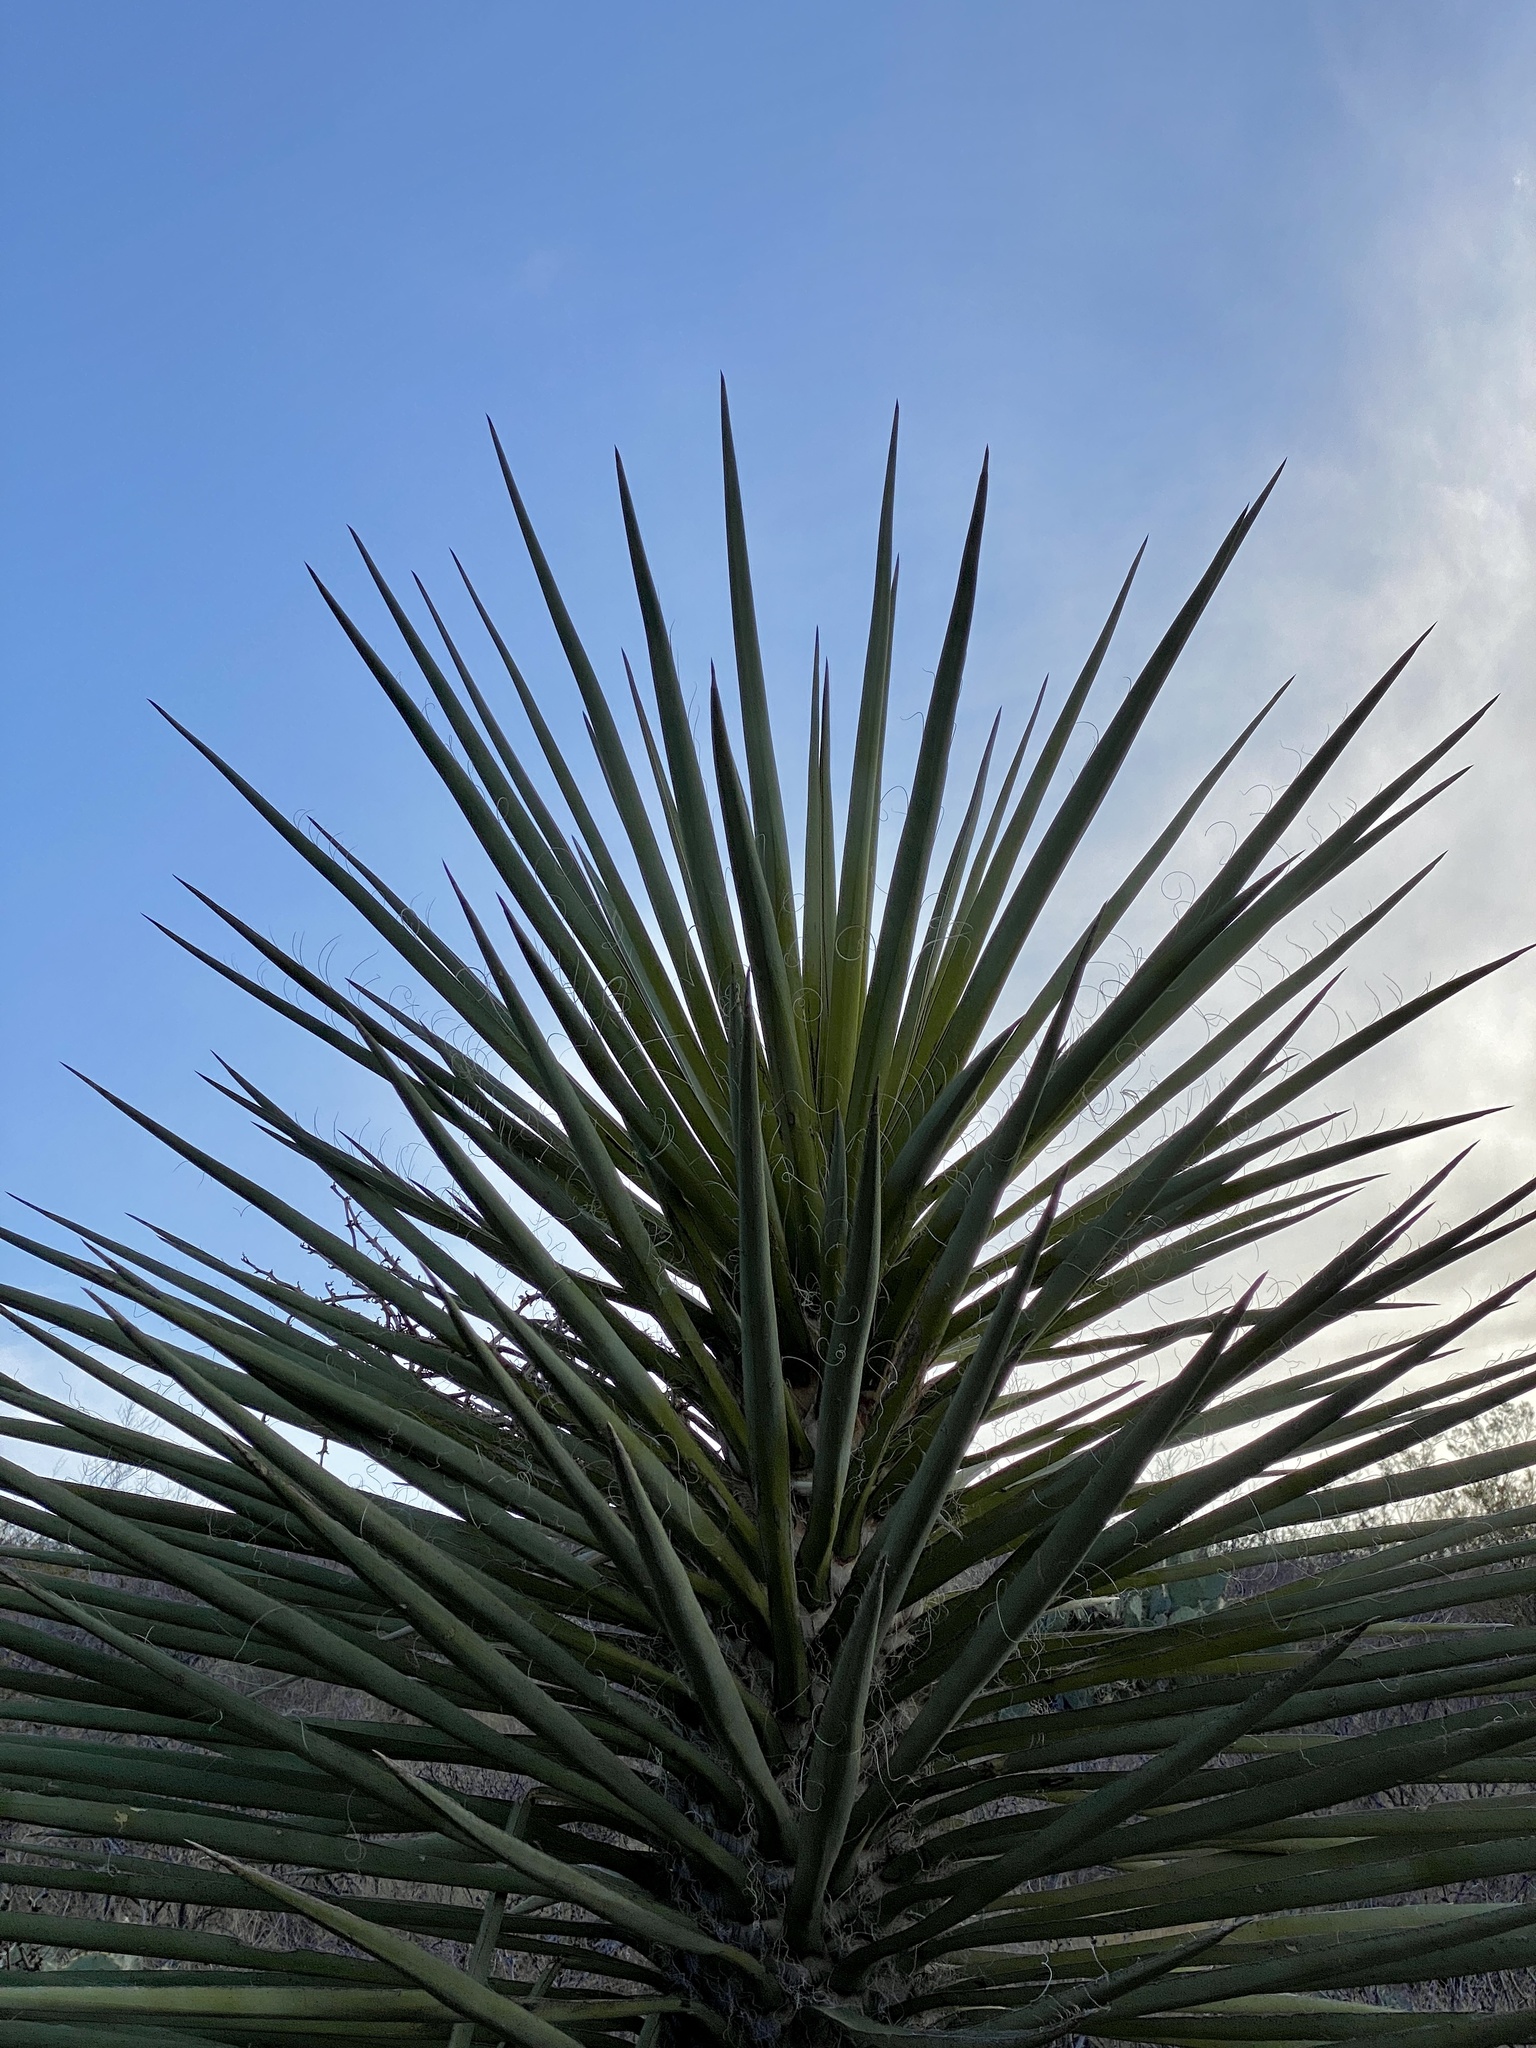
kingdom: Plantae
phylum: Tracheophyta
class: Liliopsida
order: Asparagales
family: Asparagaceae
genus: Yucca
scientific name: Yucca treculiana
